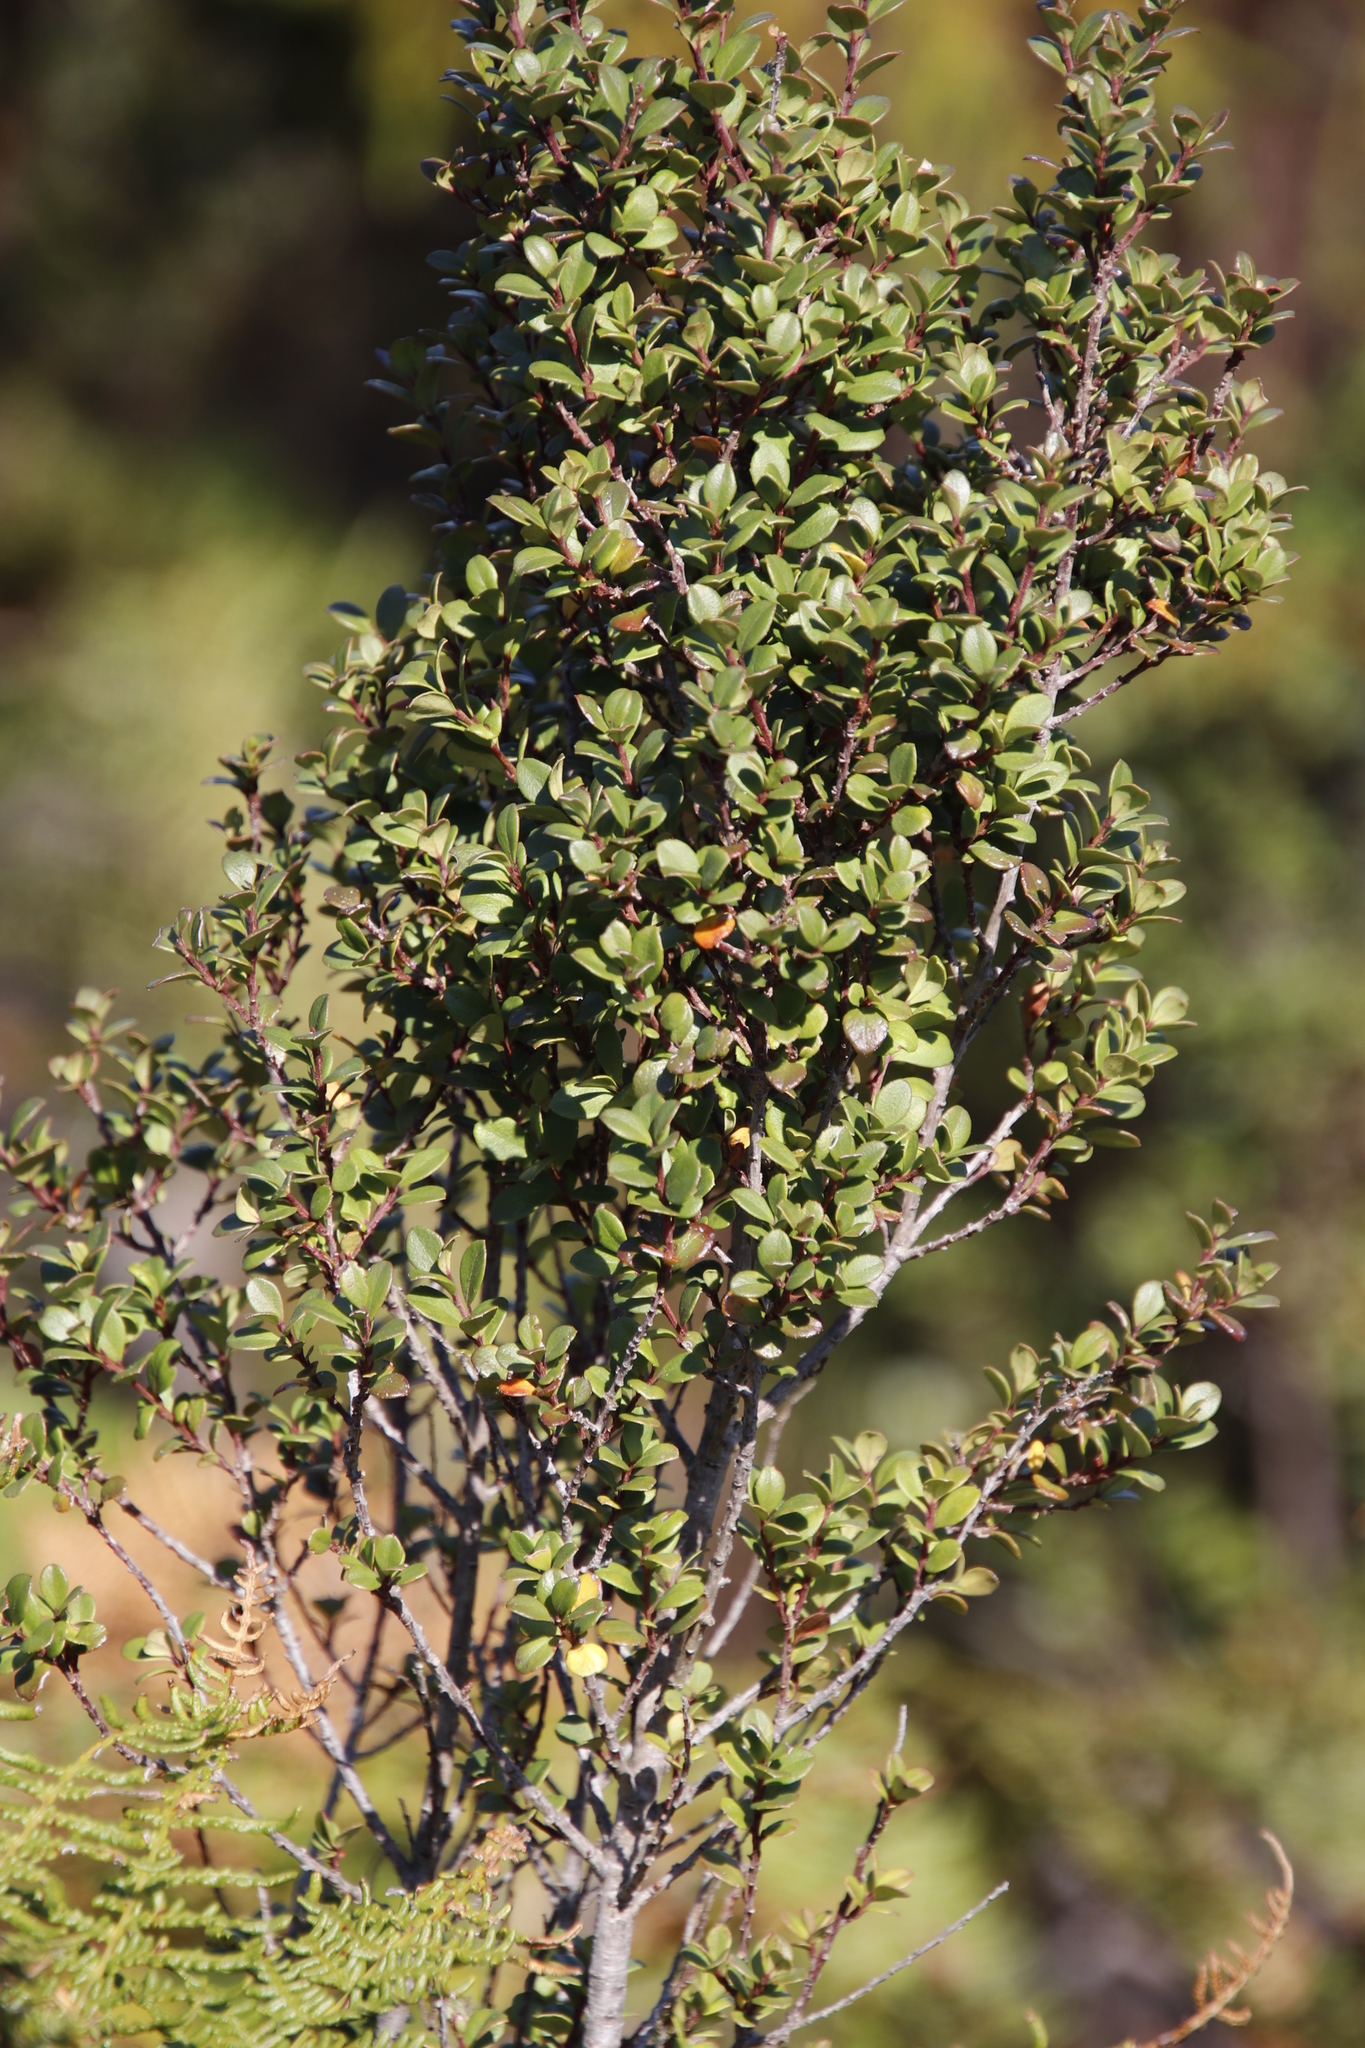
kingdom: Plantae
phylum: Tracheophyta
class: Magnoliopsida
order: Ericales
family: Primulaceae
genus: Myrsine
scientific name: Myrsine africana
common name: African-boxwood
